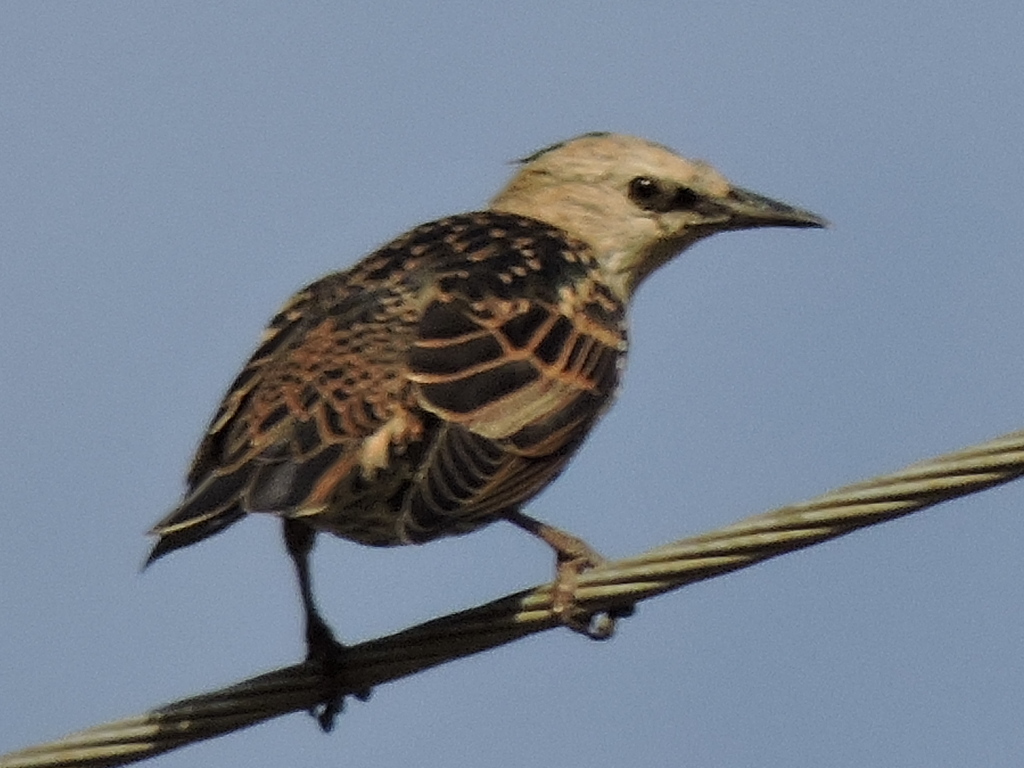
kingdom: Animalia
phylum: Chordata
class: Aves
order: Passeriformes
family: Sturnidae
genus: Sturnus
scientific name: Sturnus vulgaris
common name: Common starling
